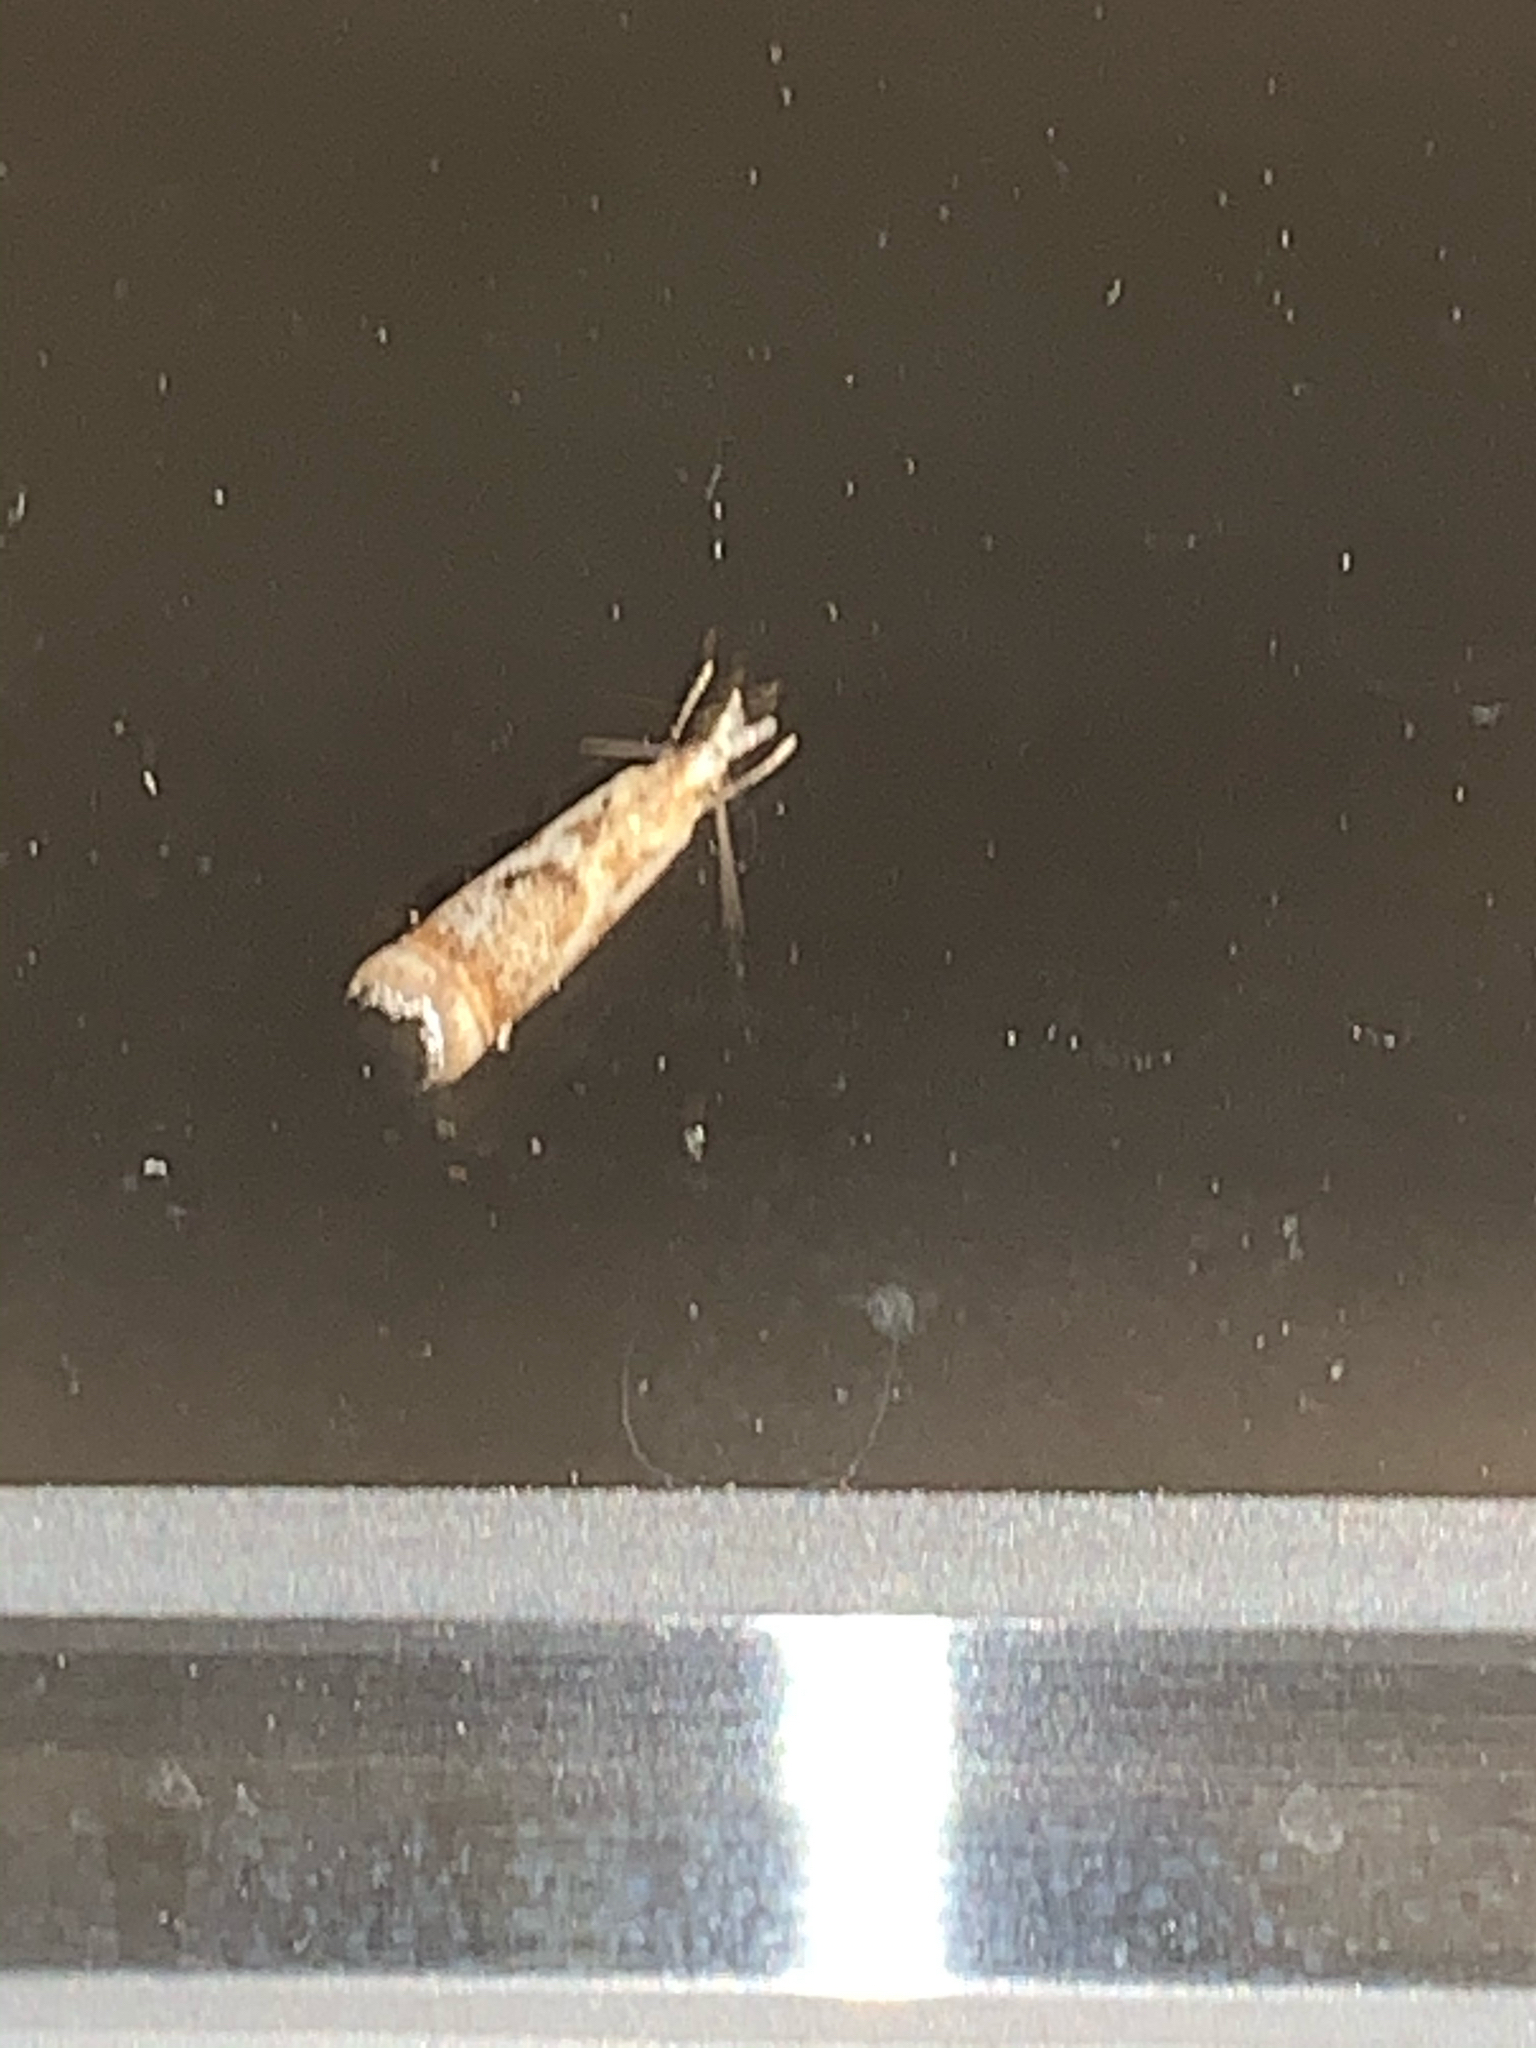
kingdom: Animalia
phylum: Arthropoda
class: Insecta
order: Lepidoptera
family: Crambidae
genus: Microcrambus
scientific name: Microcrambus elegans
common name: Elegant grass-veneer
